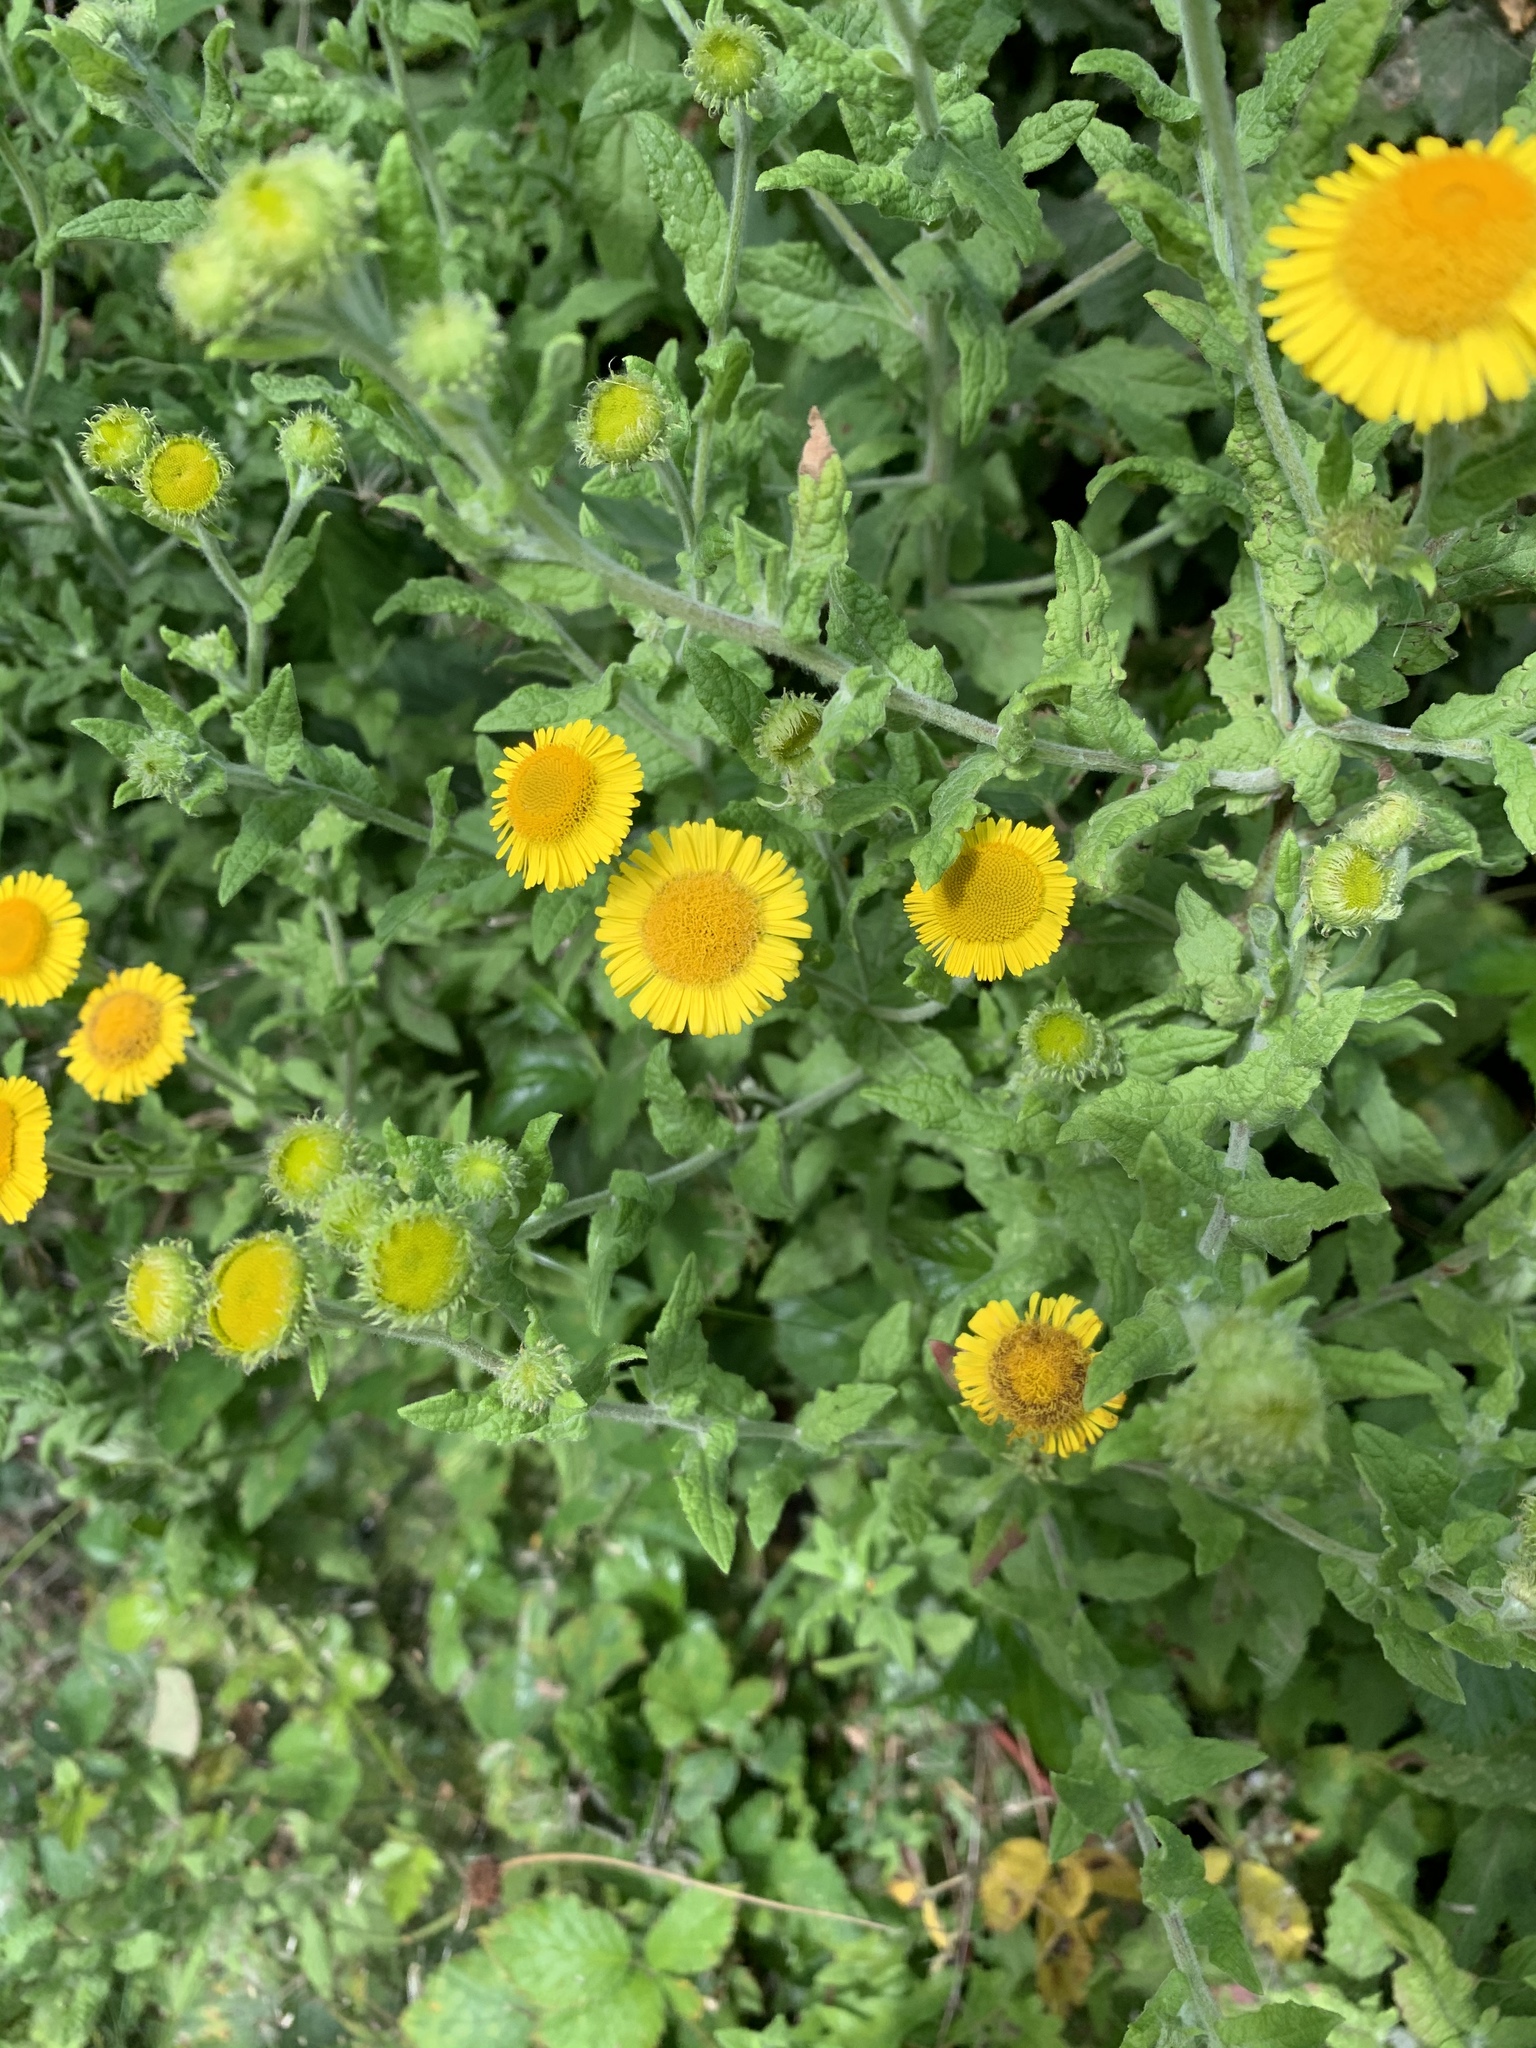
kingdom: Plantae
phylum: Tracheophyta
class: Magnoliopsida
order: Asterales
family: Asteraceae
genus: Pulicaria
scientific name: Pulicaria dysenterica
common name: Common fleabane
